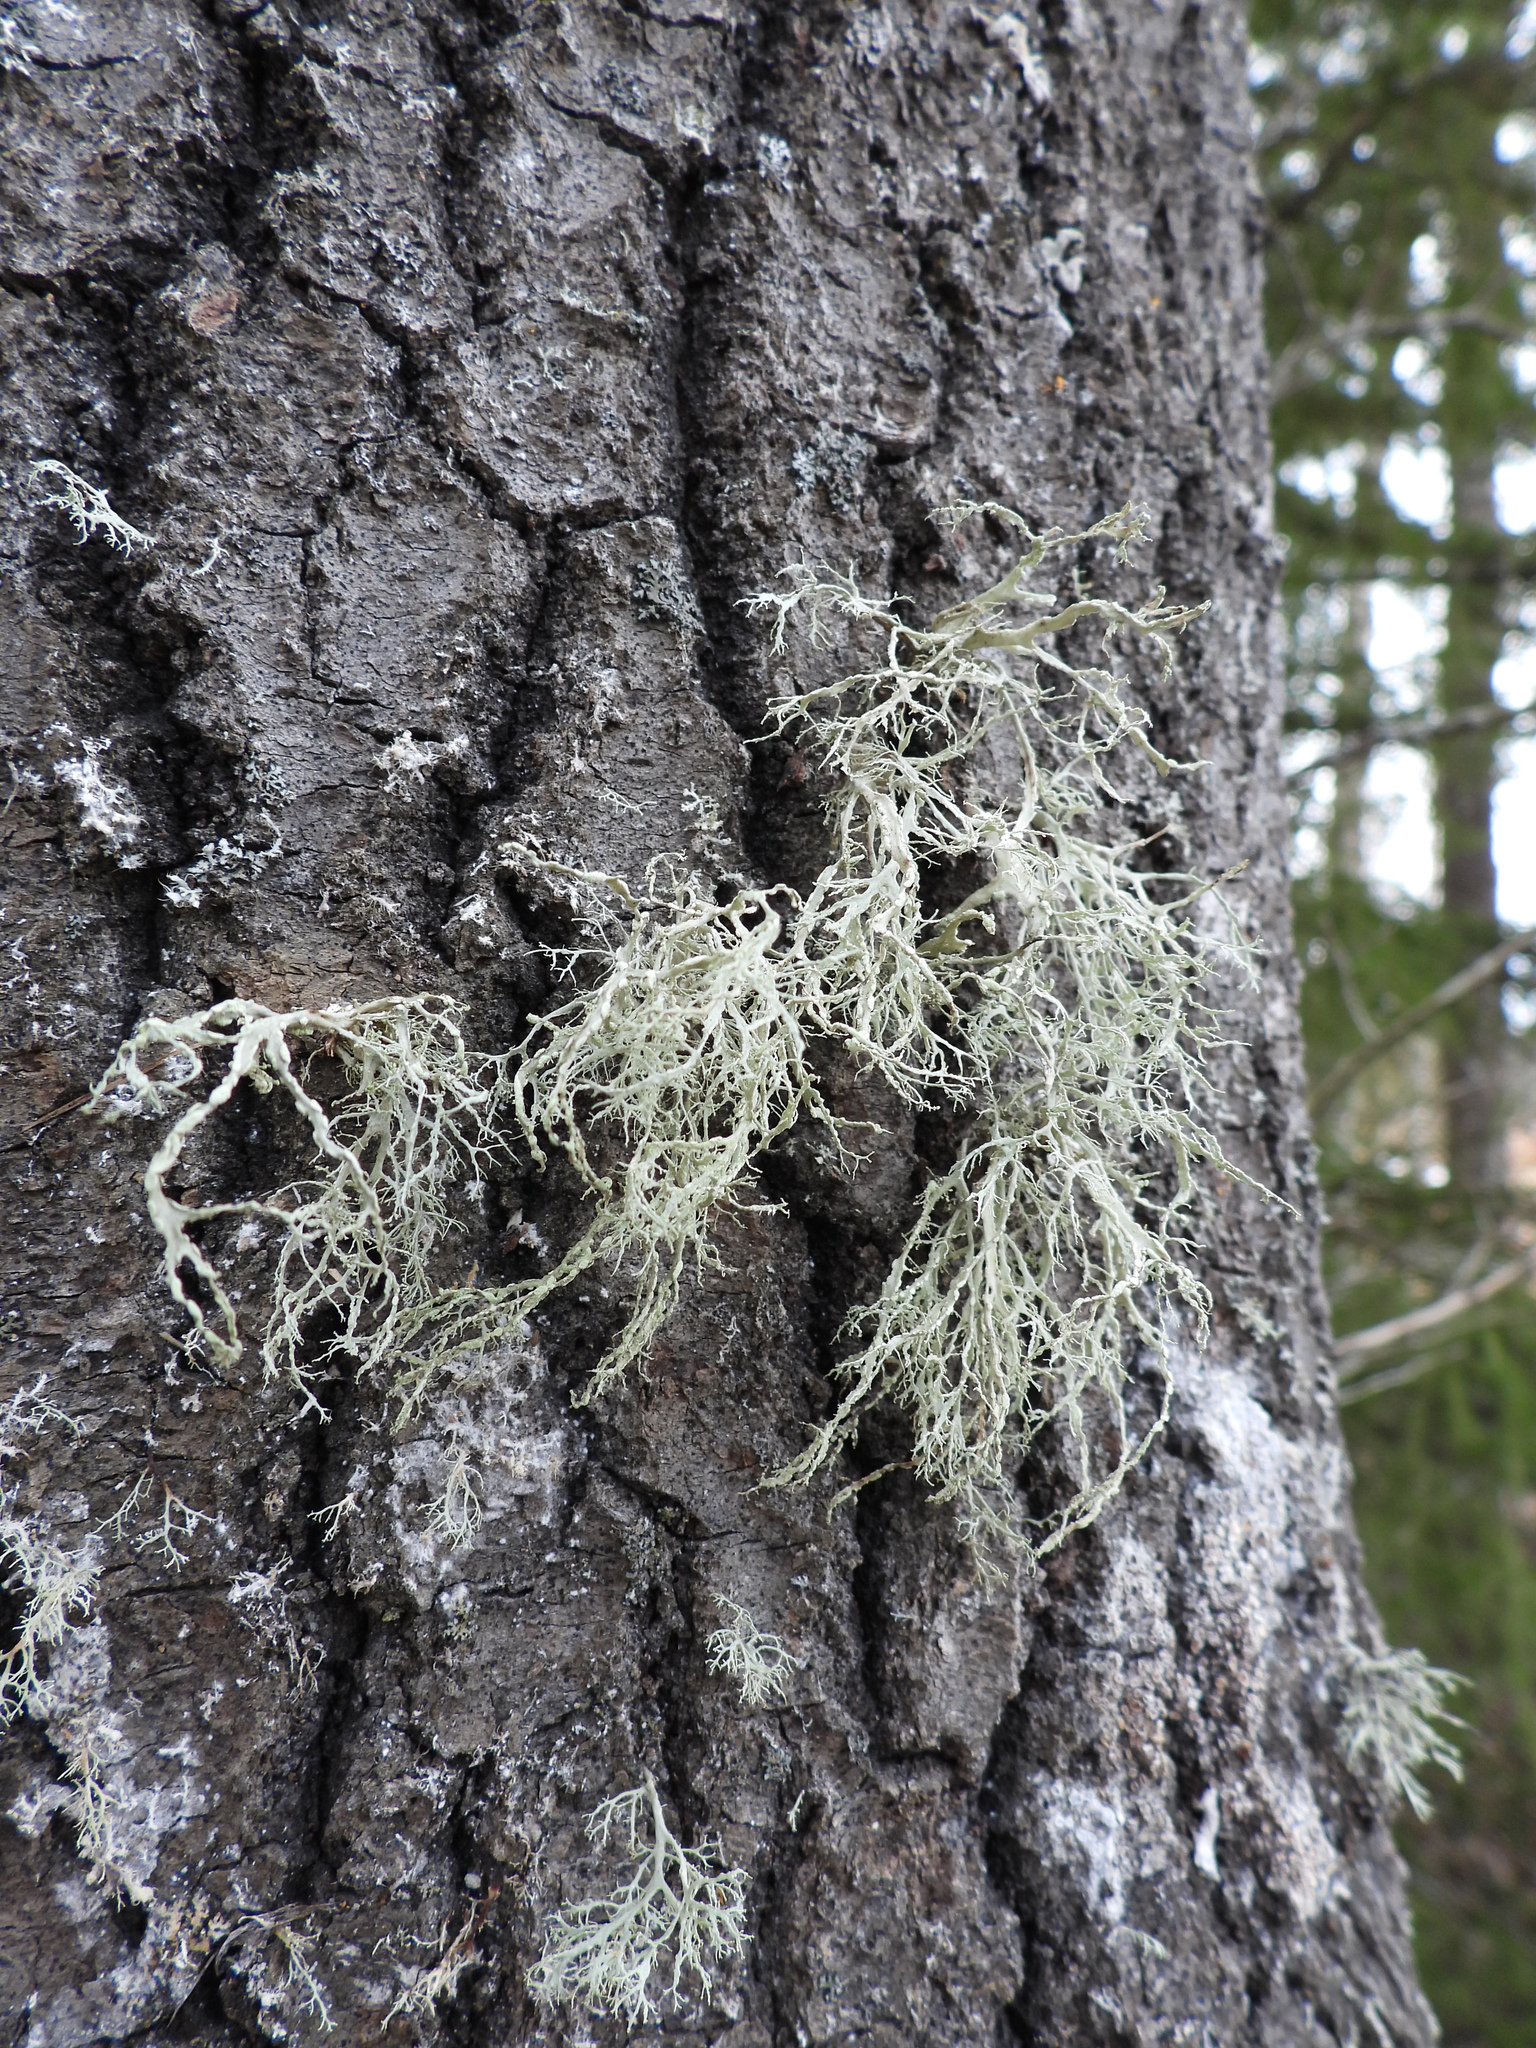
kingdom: Fungi
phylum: Ascomycota
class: Lecanoromycetes
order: Lecanorales
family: Ramalinaceae
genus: Ramalina
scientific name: Ramalina farinacea
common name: Farinose cartilage lichen
